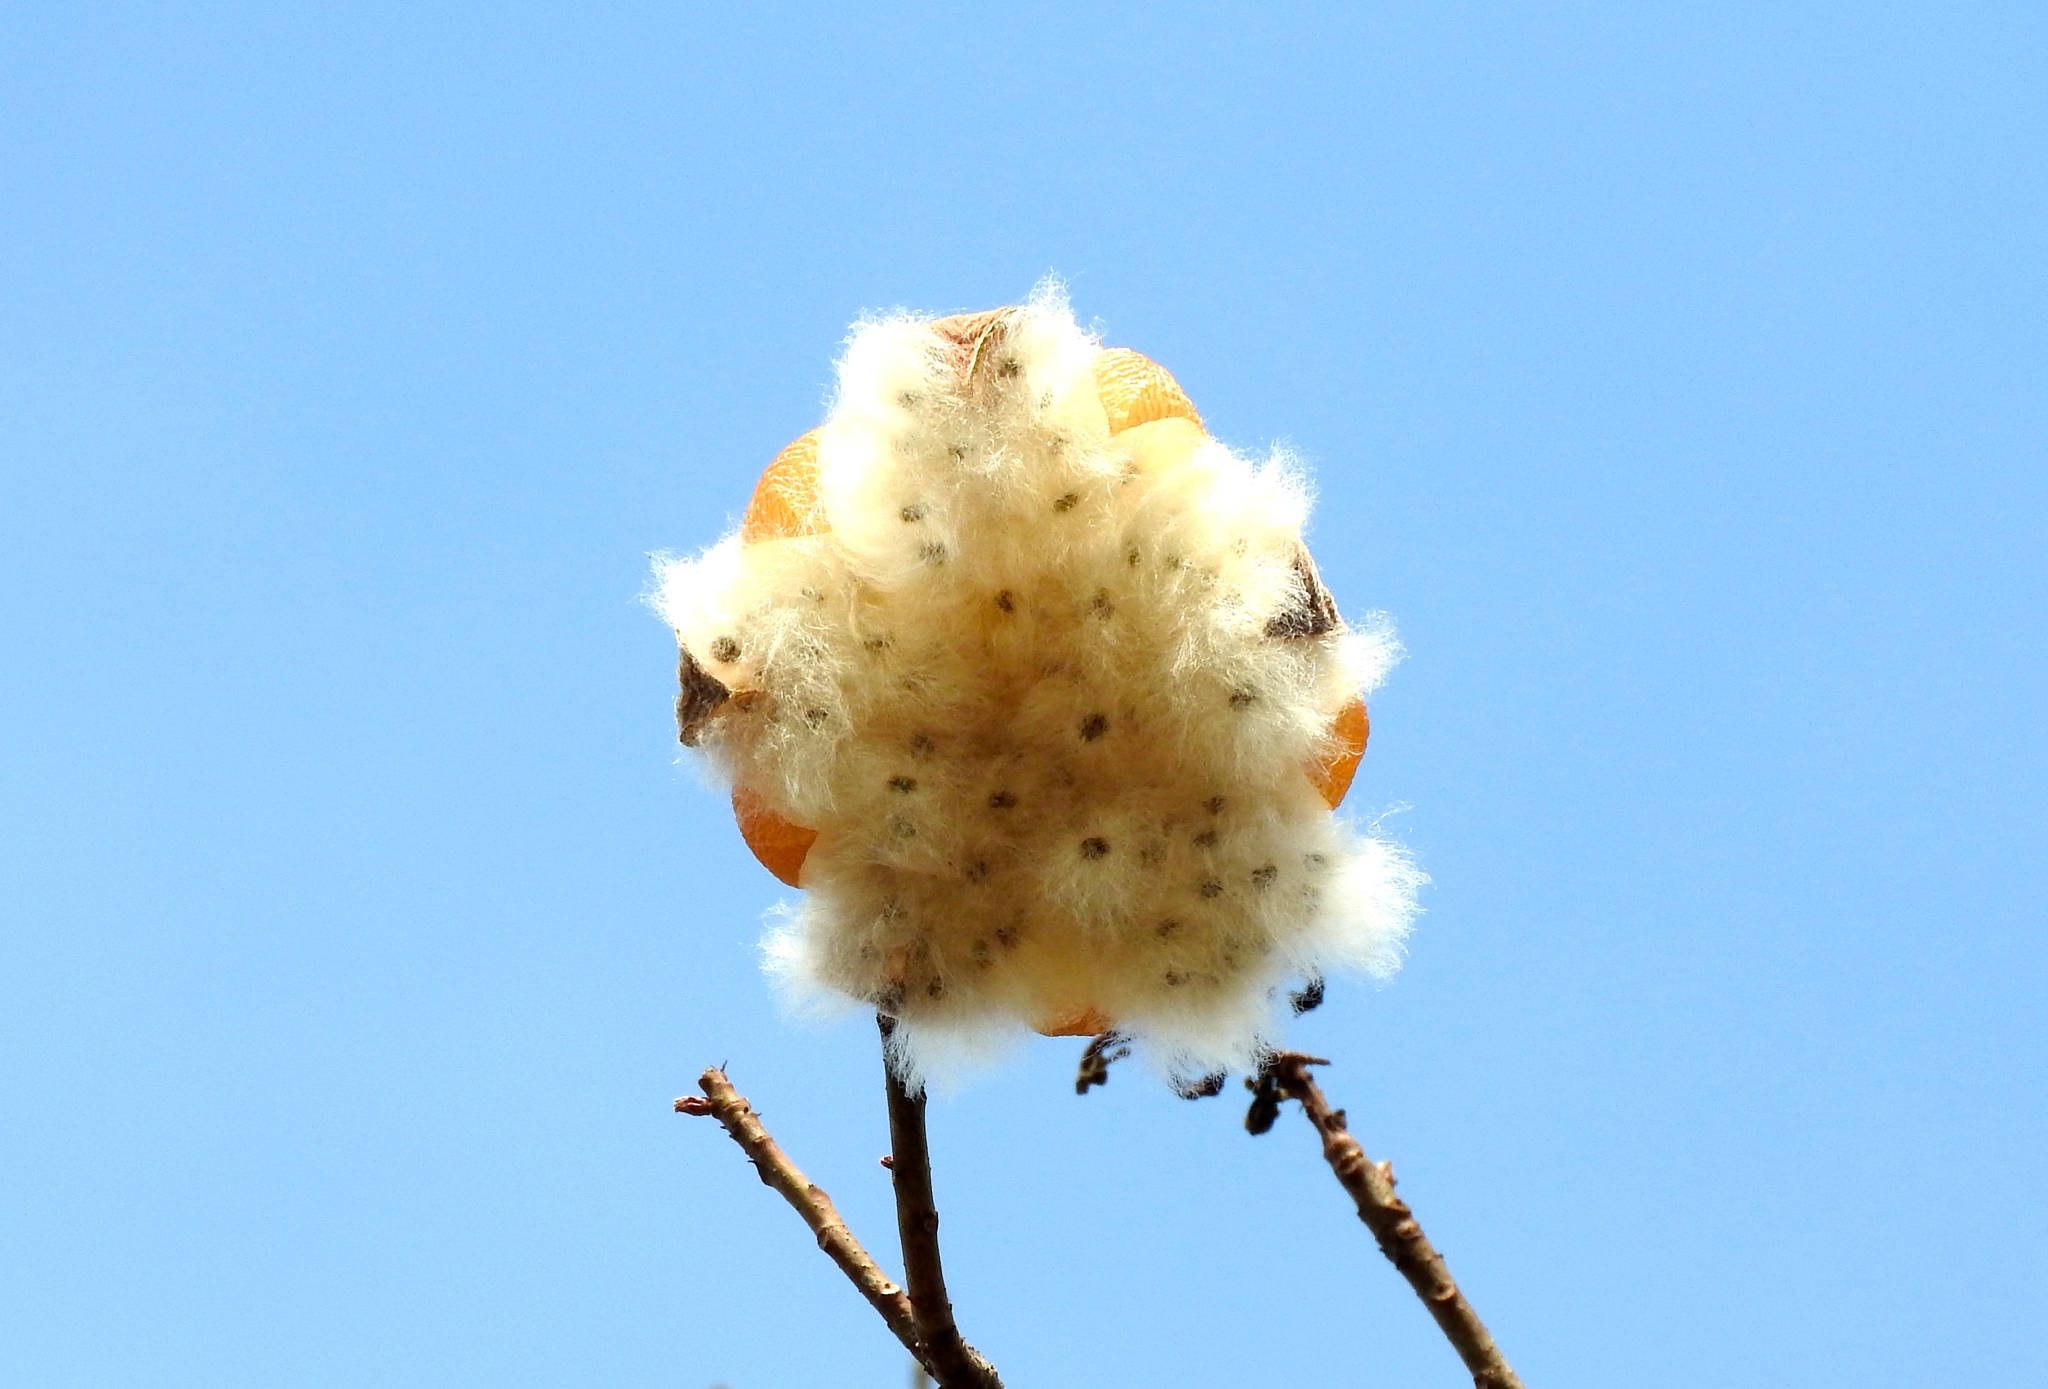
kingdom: Plantae
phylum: Tracheophyta
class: Magnoliopsida
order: Malvales
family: Cochlospermaceae
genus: Cochlospermum
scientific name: Cochlospermum vitifolium
